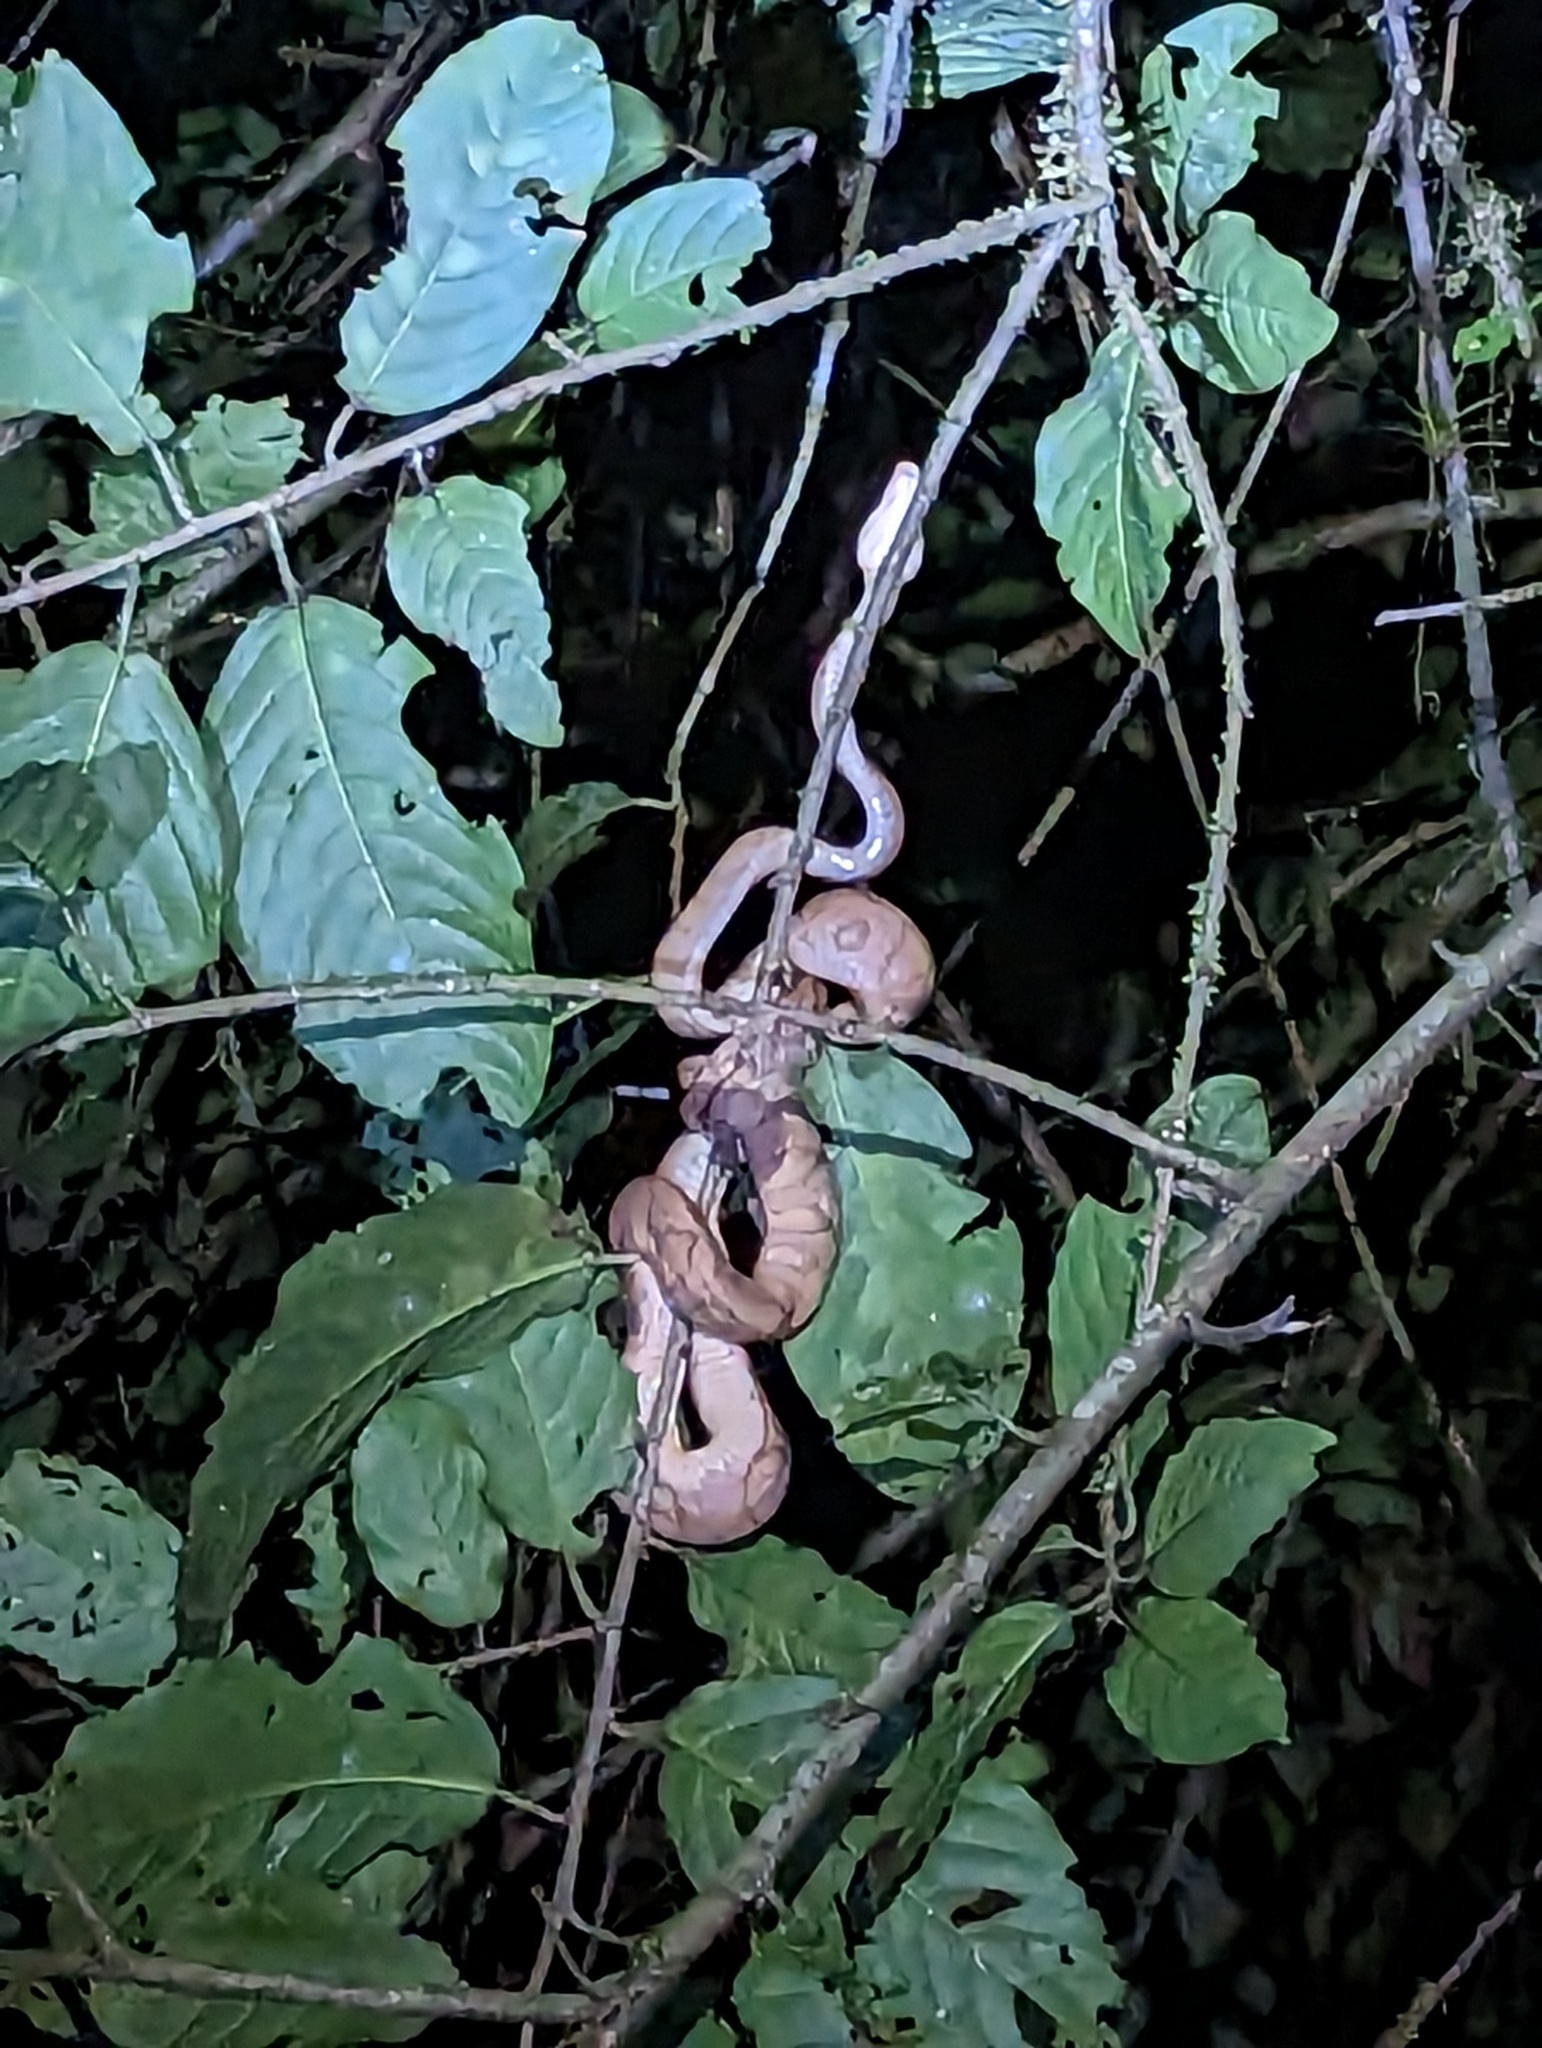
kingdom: Animalia
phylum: Chordata
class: Squamata
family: Boidae
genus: Corallus
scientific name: Corallus annulatus
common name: Ringed tree boa
